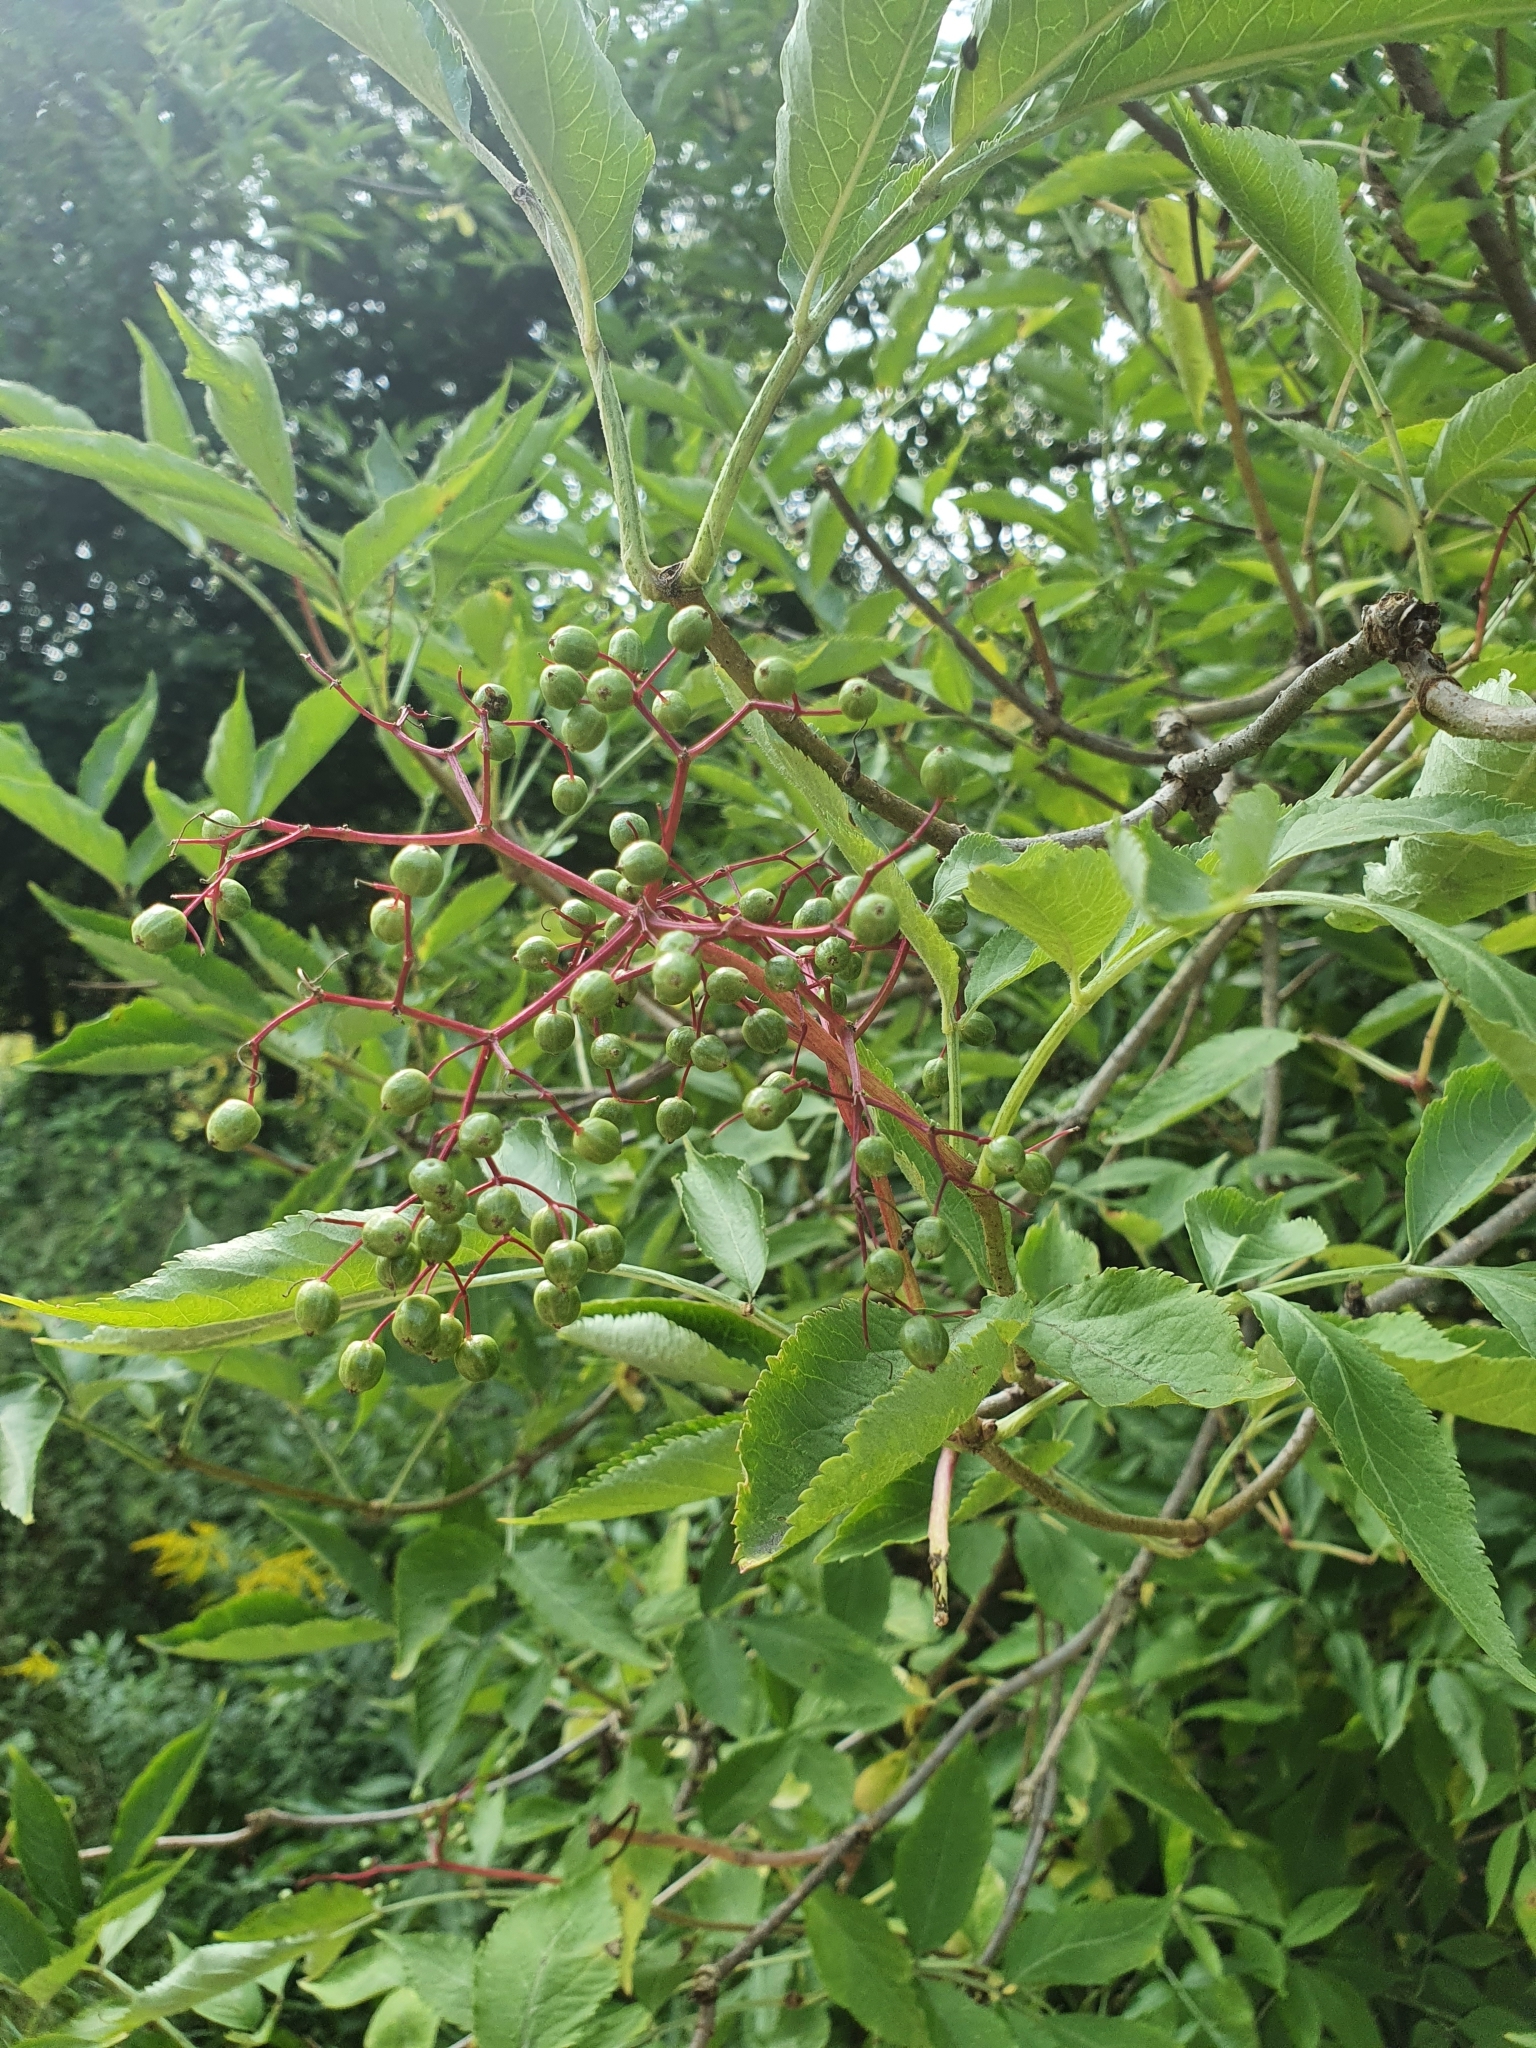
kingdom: Plantae
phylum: Tracheophyta
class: Magnoliopsida
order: Dipsacales
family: Viburnaceae
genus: Sambucus
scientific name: Sambucus nigra
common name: Elder
